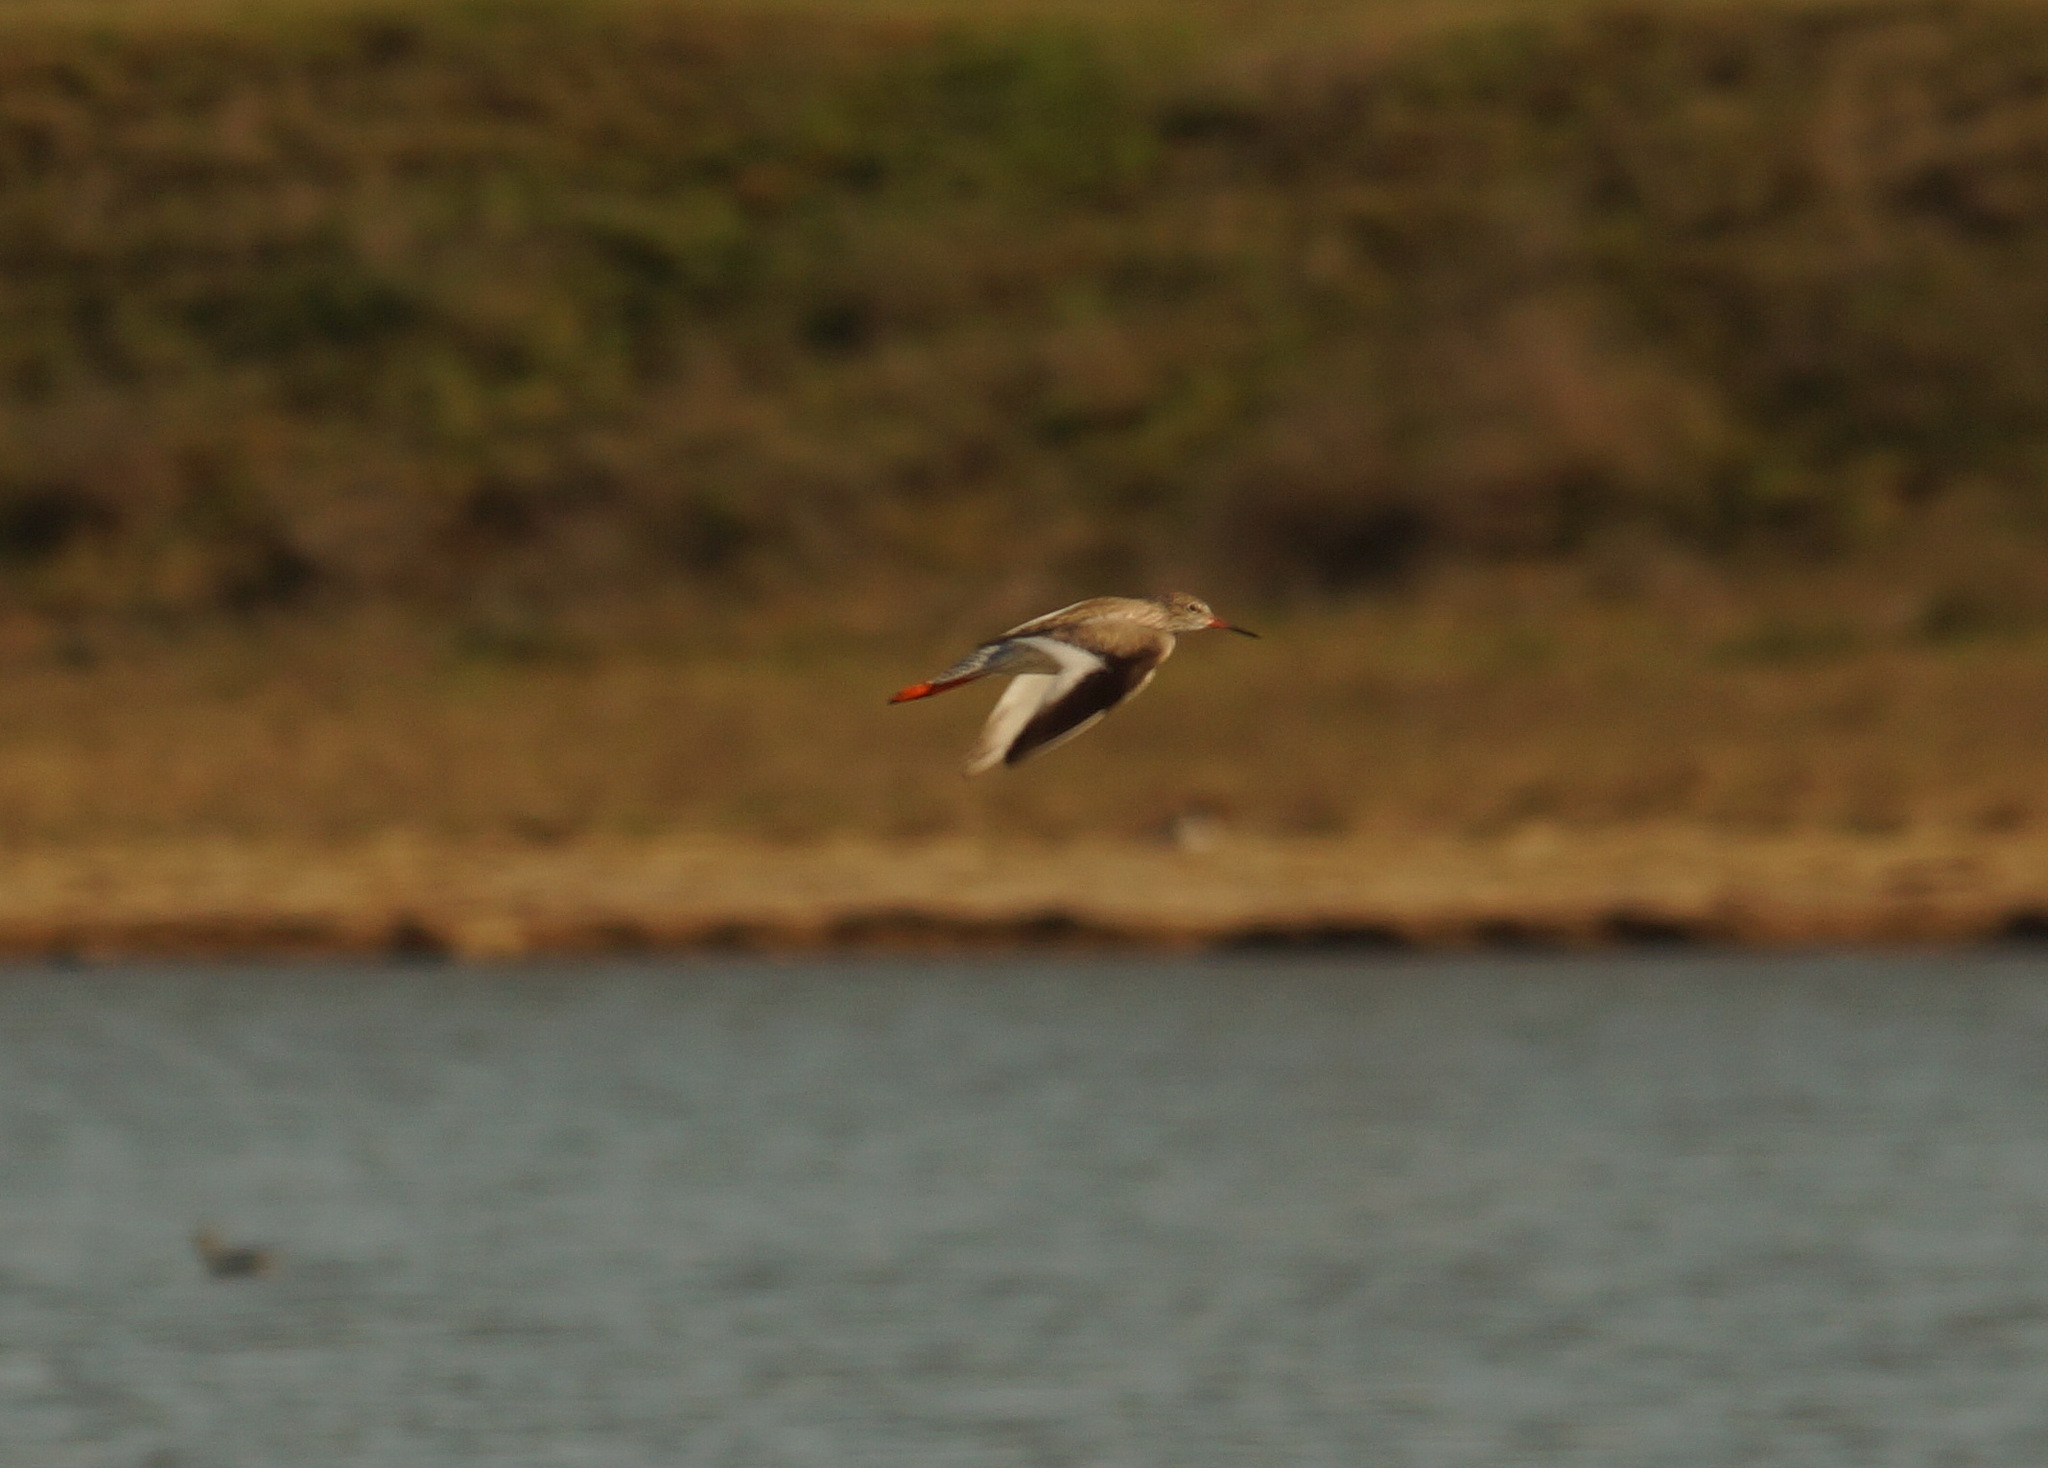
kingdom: Animalia
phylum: Chordata
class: Aves
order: Charadriiformes
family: Scolopacidae
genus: Tringa
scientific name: Tringa totanus
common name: Common redshank
